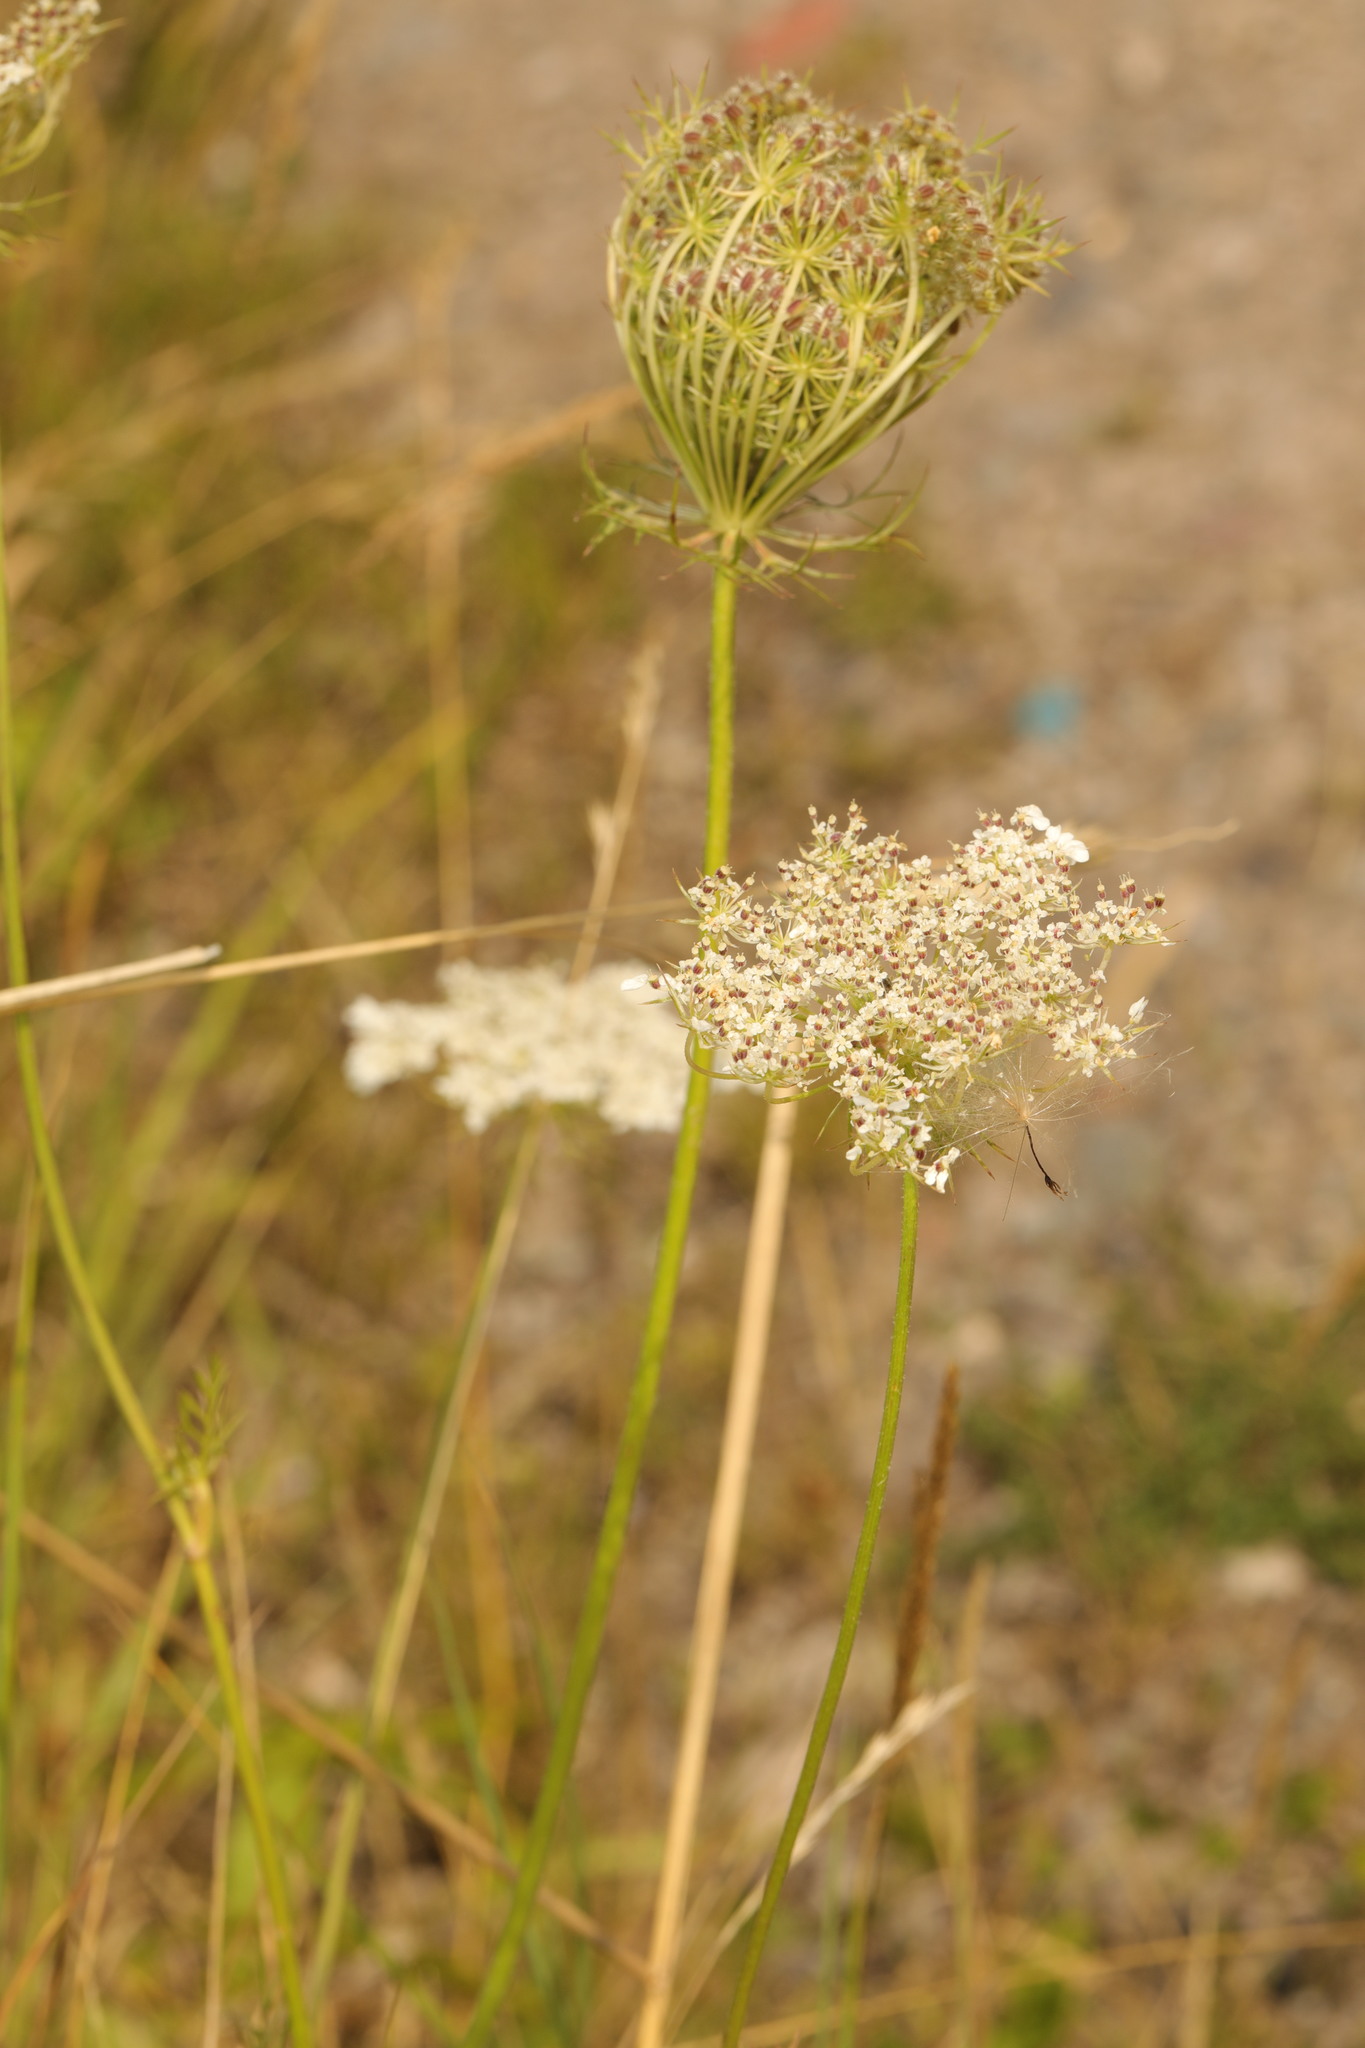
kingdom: Plantae
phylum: Tracheophyta
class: Magnoliopsida
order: Apiales
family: Apiaceae
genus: Daucus
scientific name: Daucus carota
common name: Wild carrot
